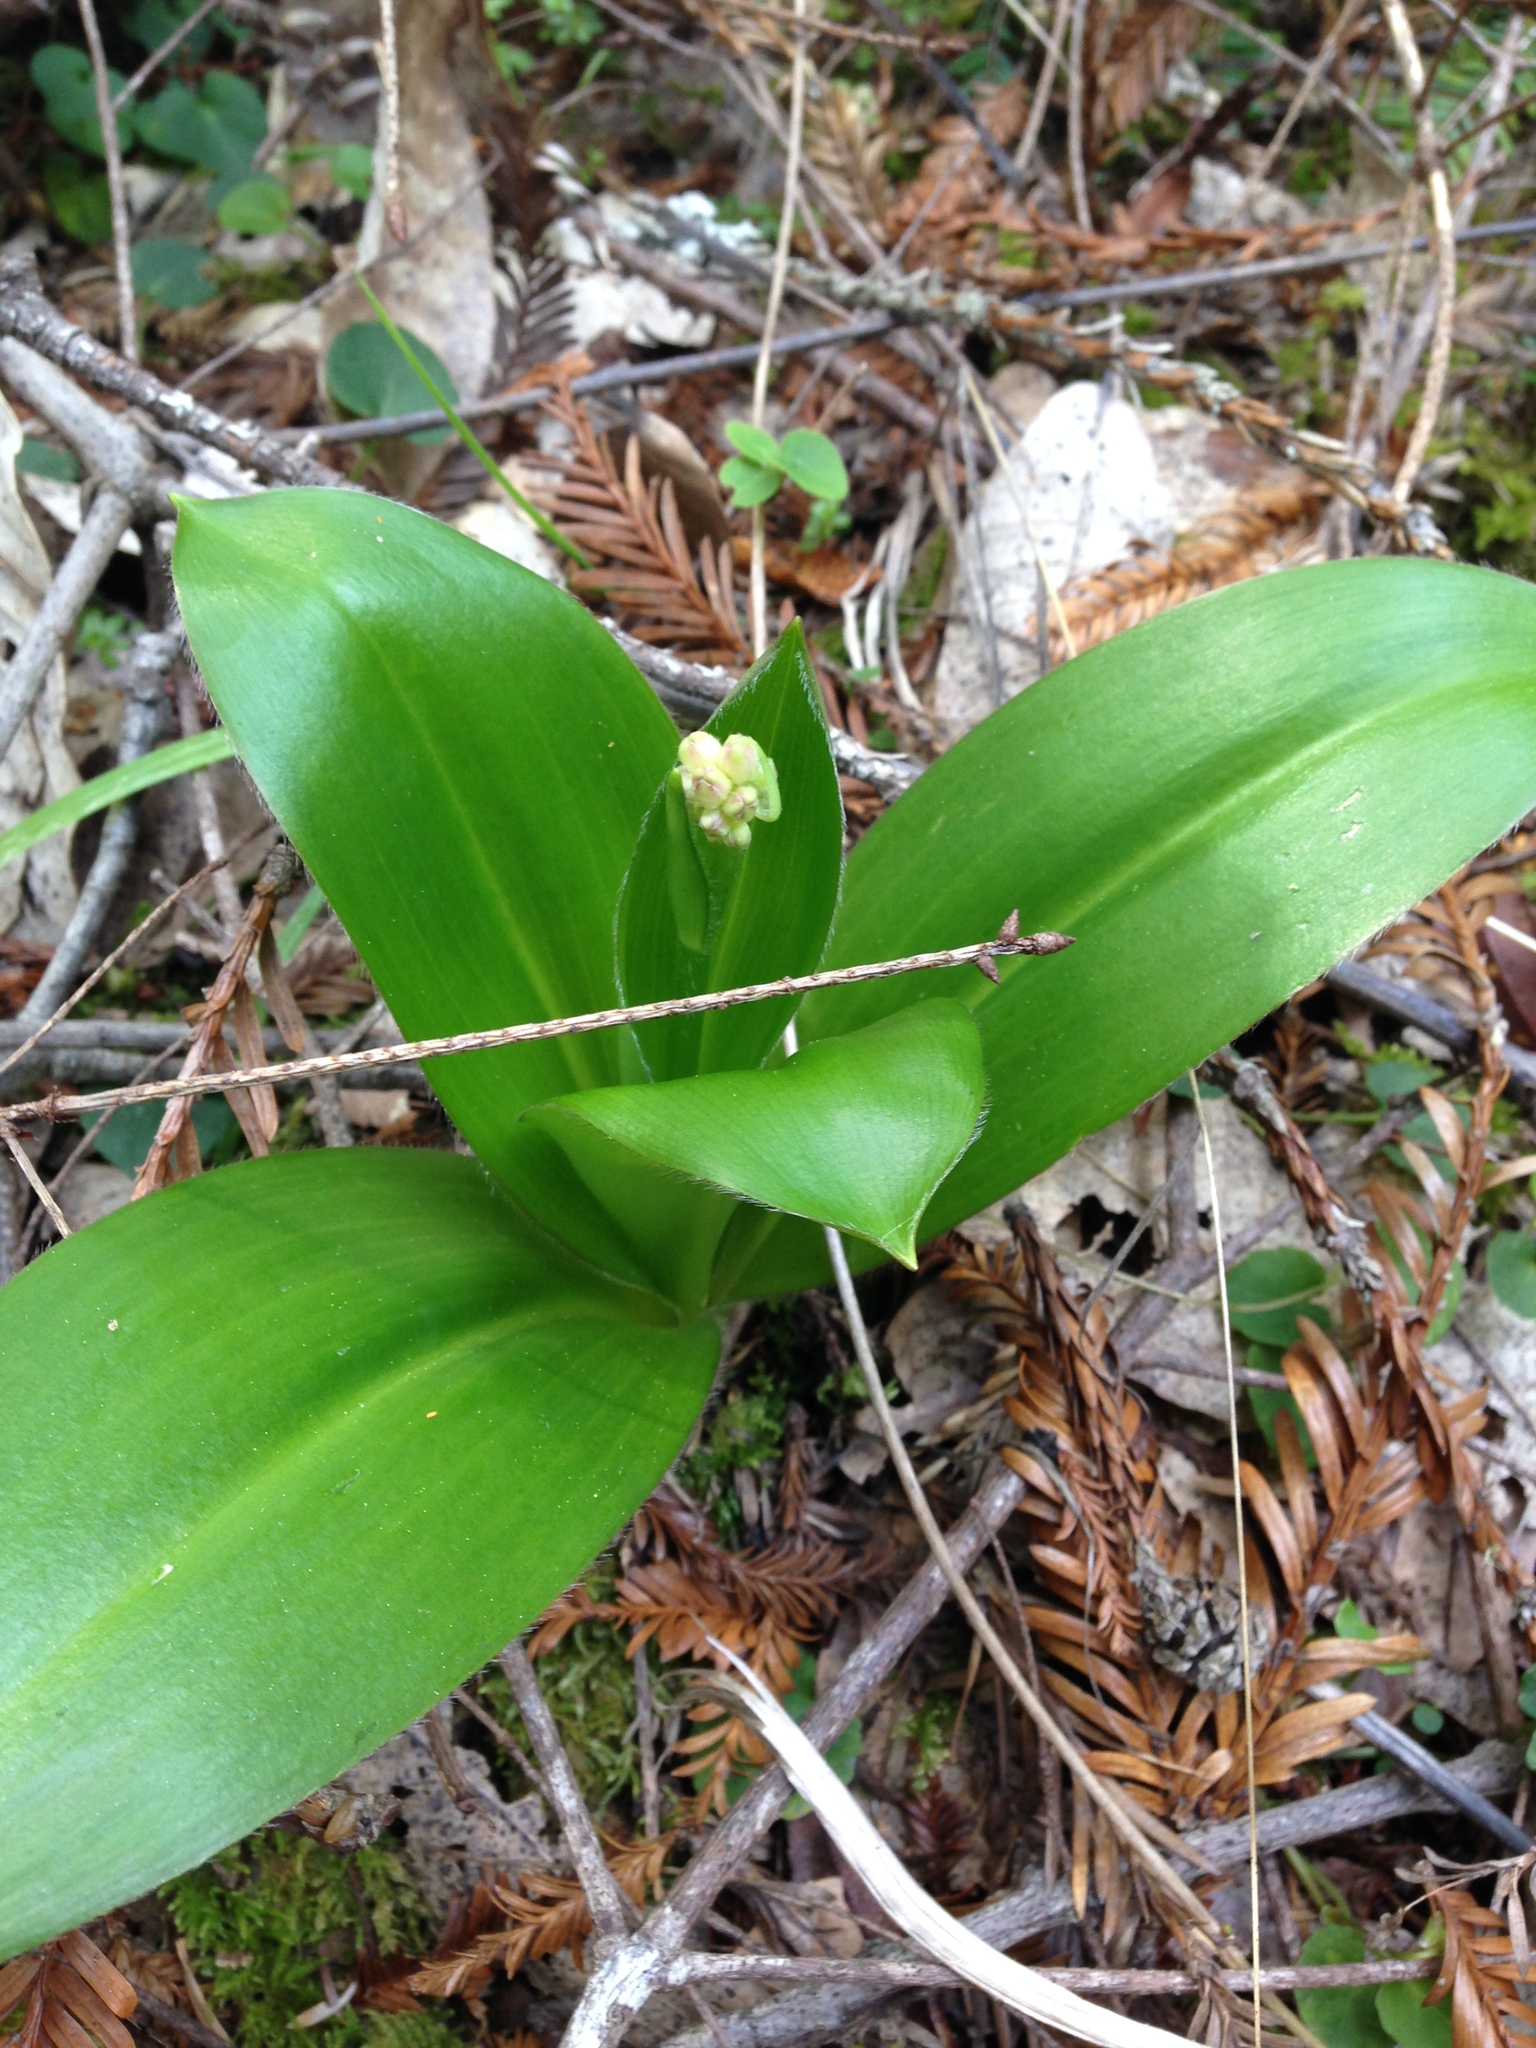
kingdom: Plantae
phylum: Tracheophyta
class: Liliopsida
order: Liliales
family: Liliaceae
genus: Clintonia
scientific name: Clintonia andrewsiana
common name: Red clintonia
